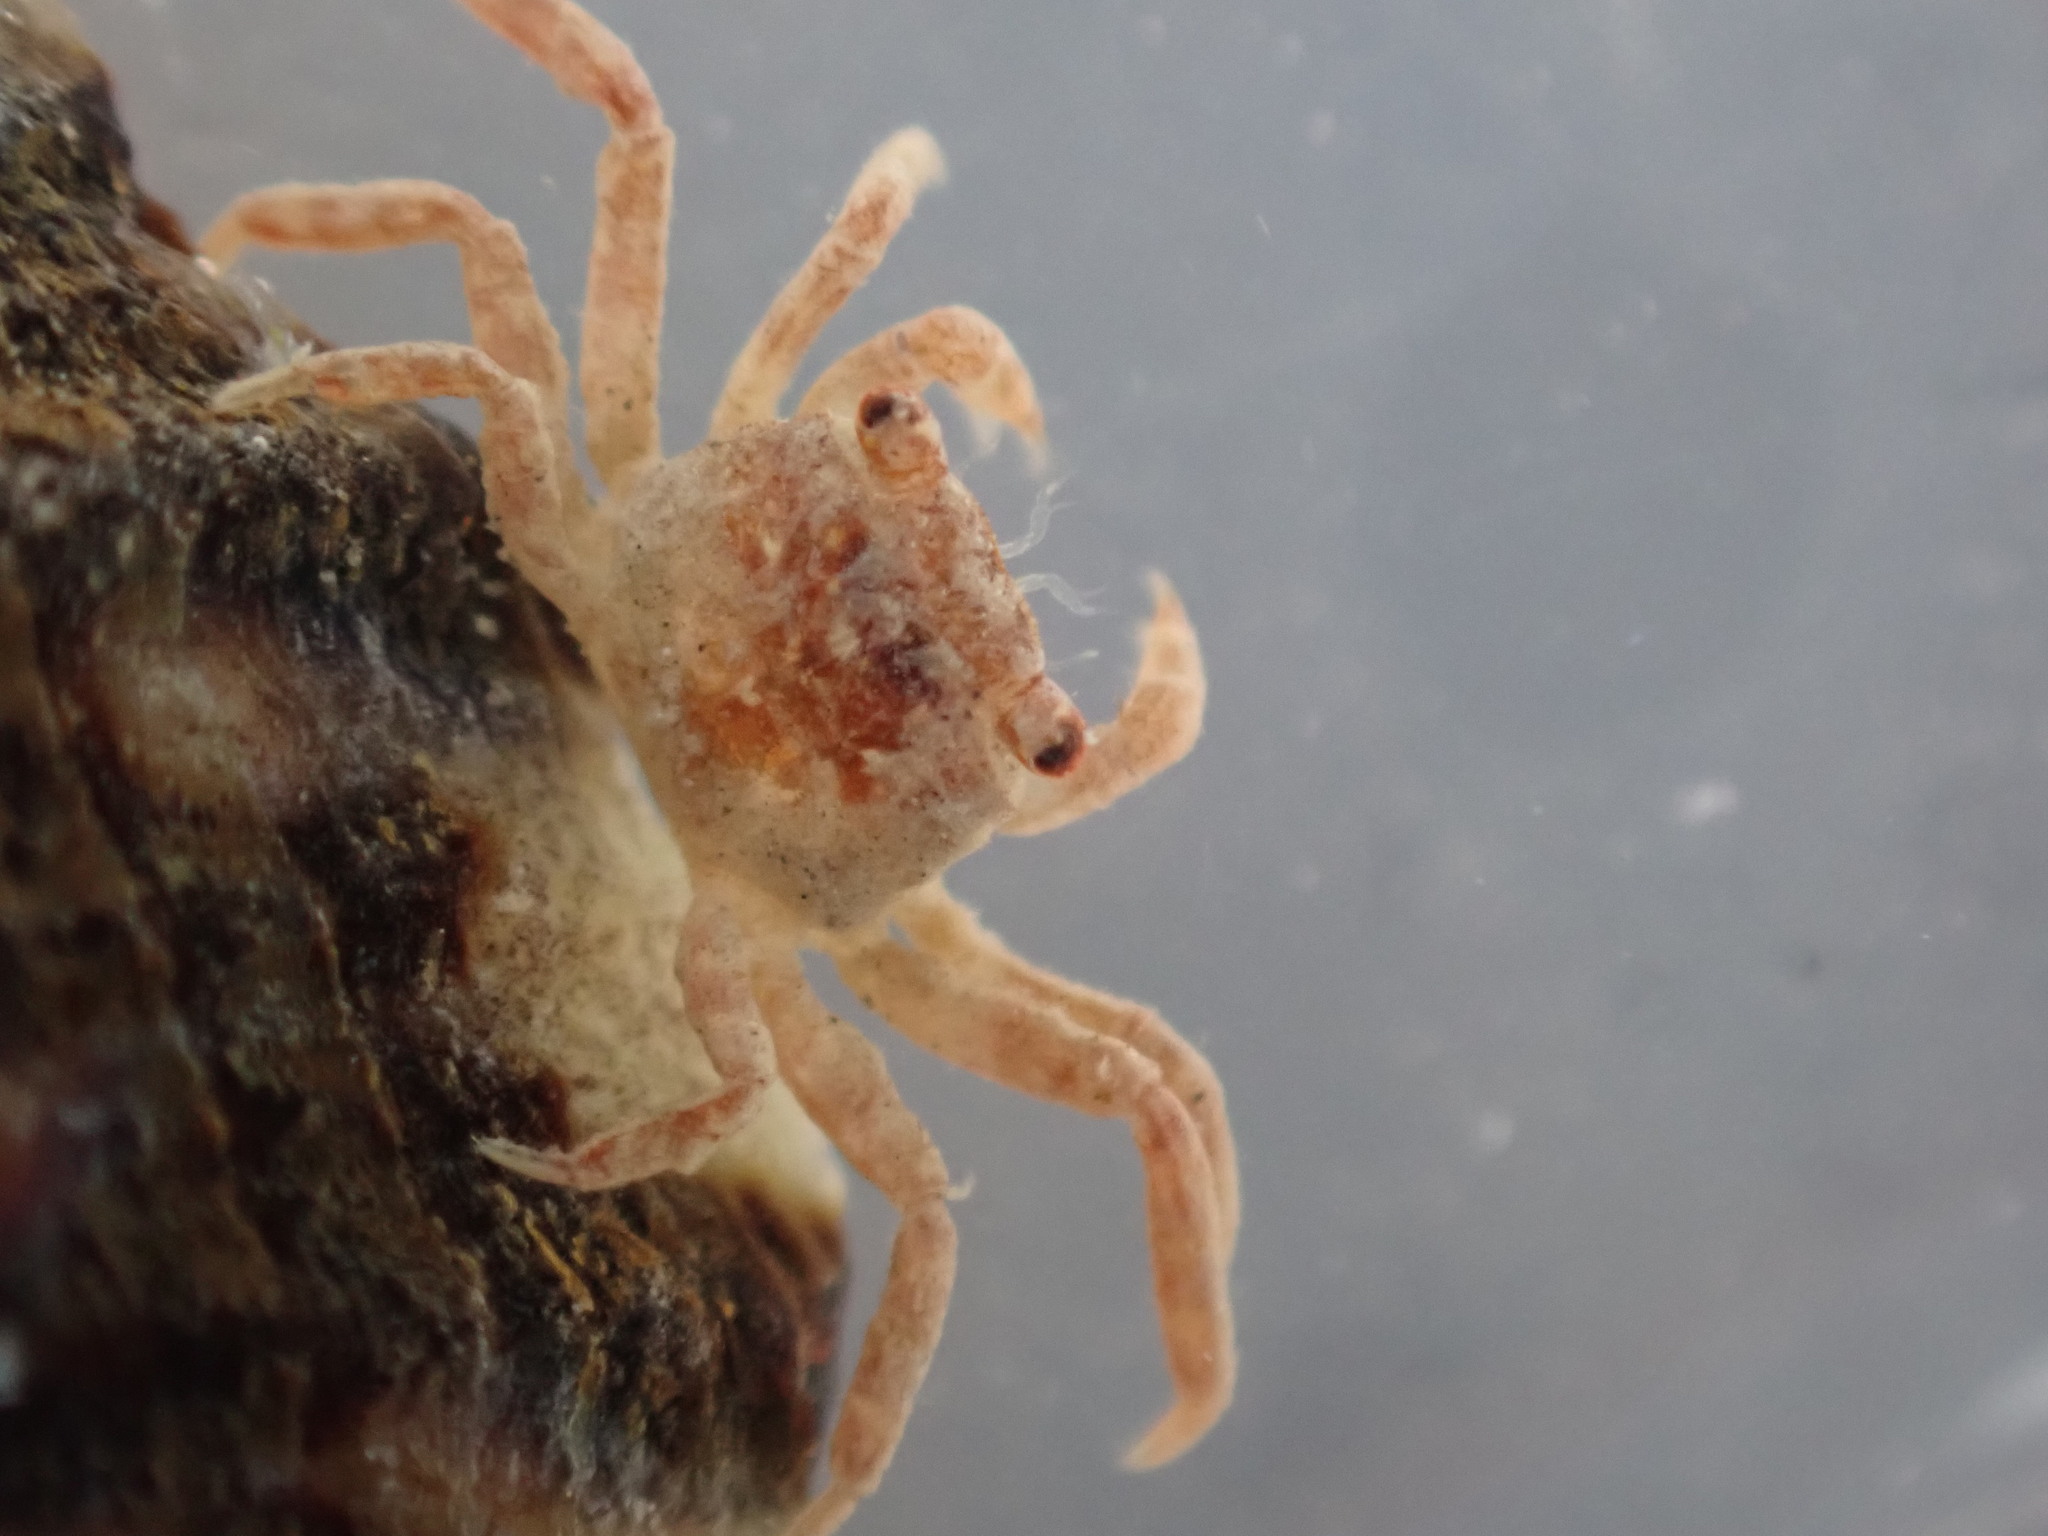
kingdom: Animalia
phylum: Arthropoda
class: Malacostraca
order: Decapoda
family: Varunidae
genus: Cyclograpsus
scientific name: Cyclograpsus lavauxi
